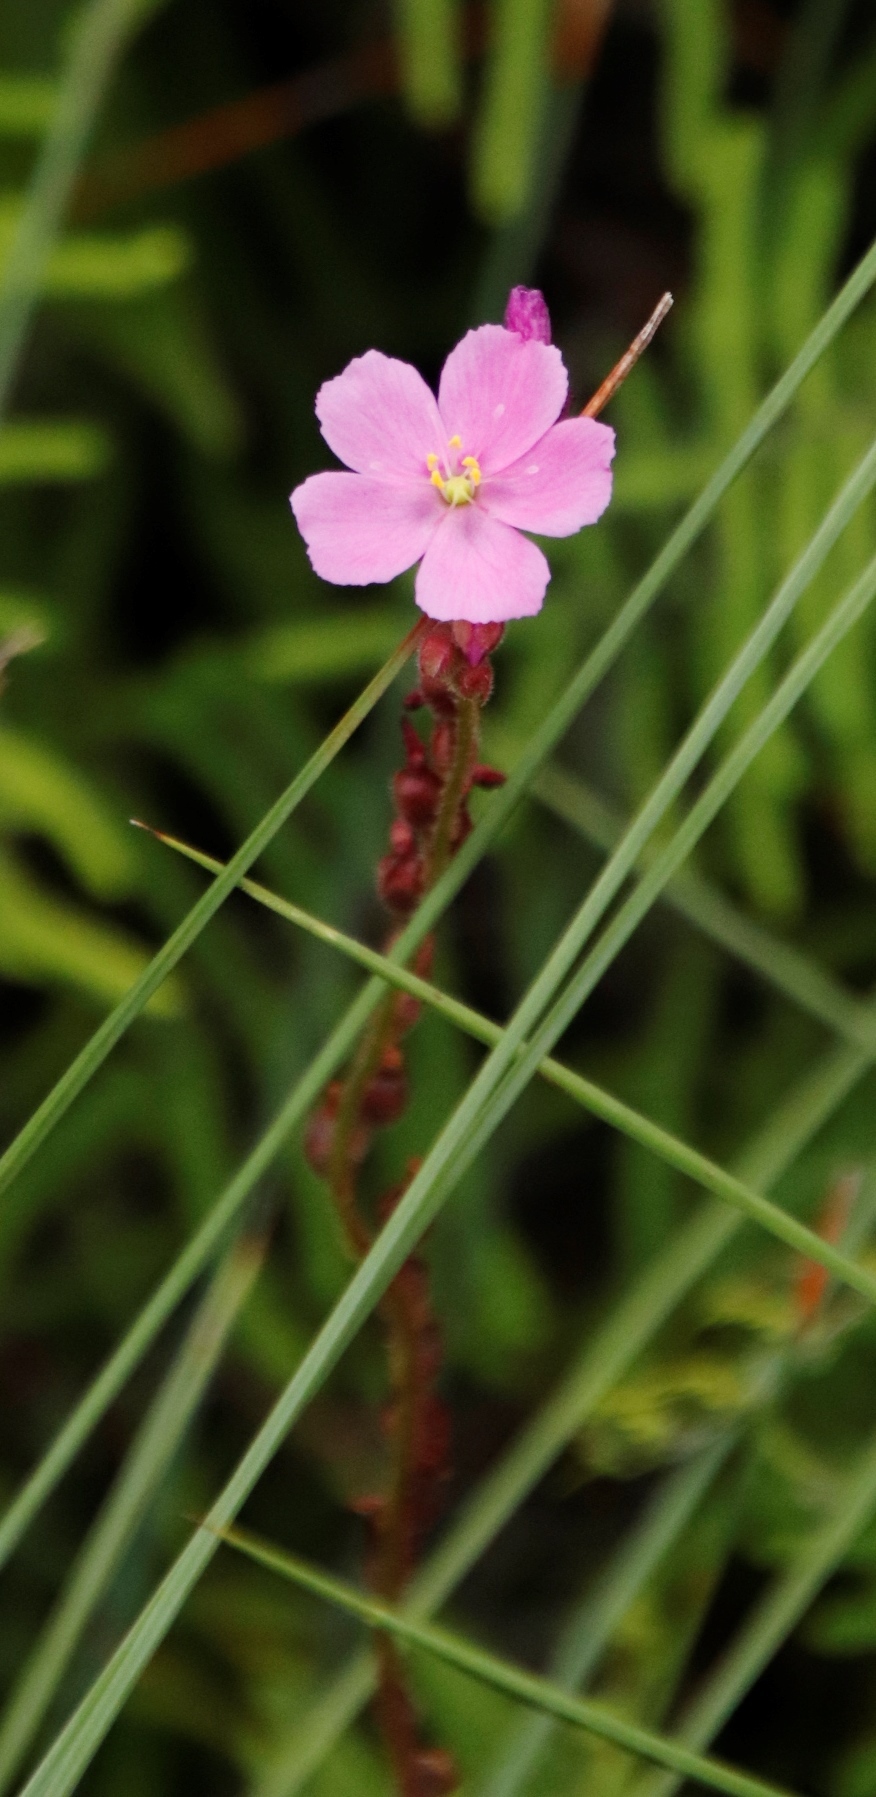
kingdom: Plantae
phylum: Tracheophyta
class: Magnoliopsida
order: Caryophyllales
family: Droseraceae
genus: Drosera
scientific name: Drosera capensis
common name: Cape sundew
